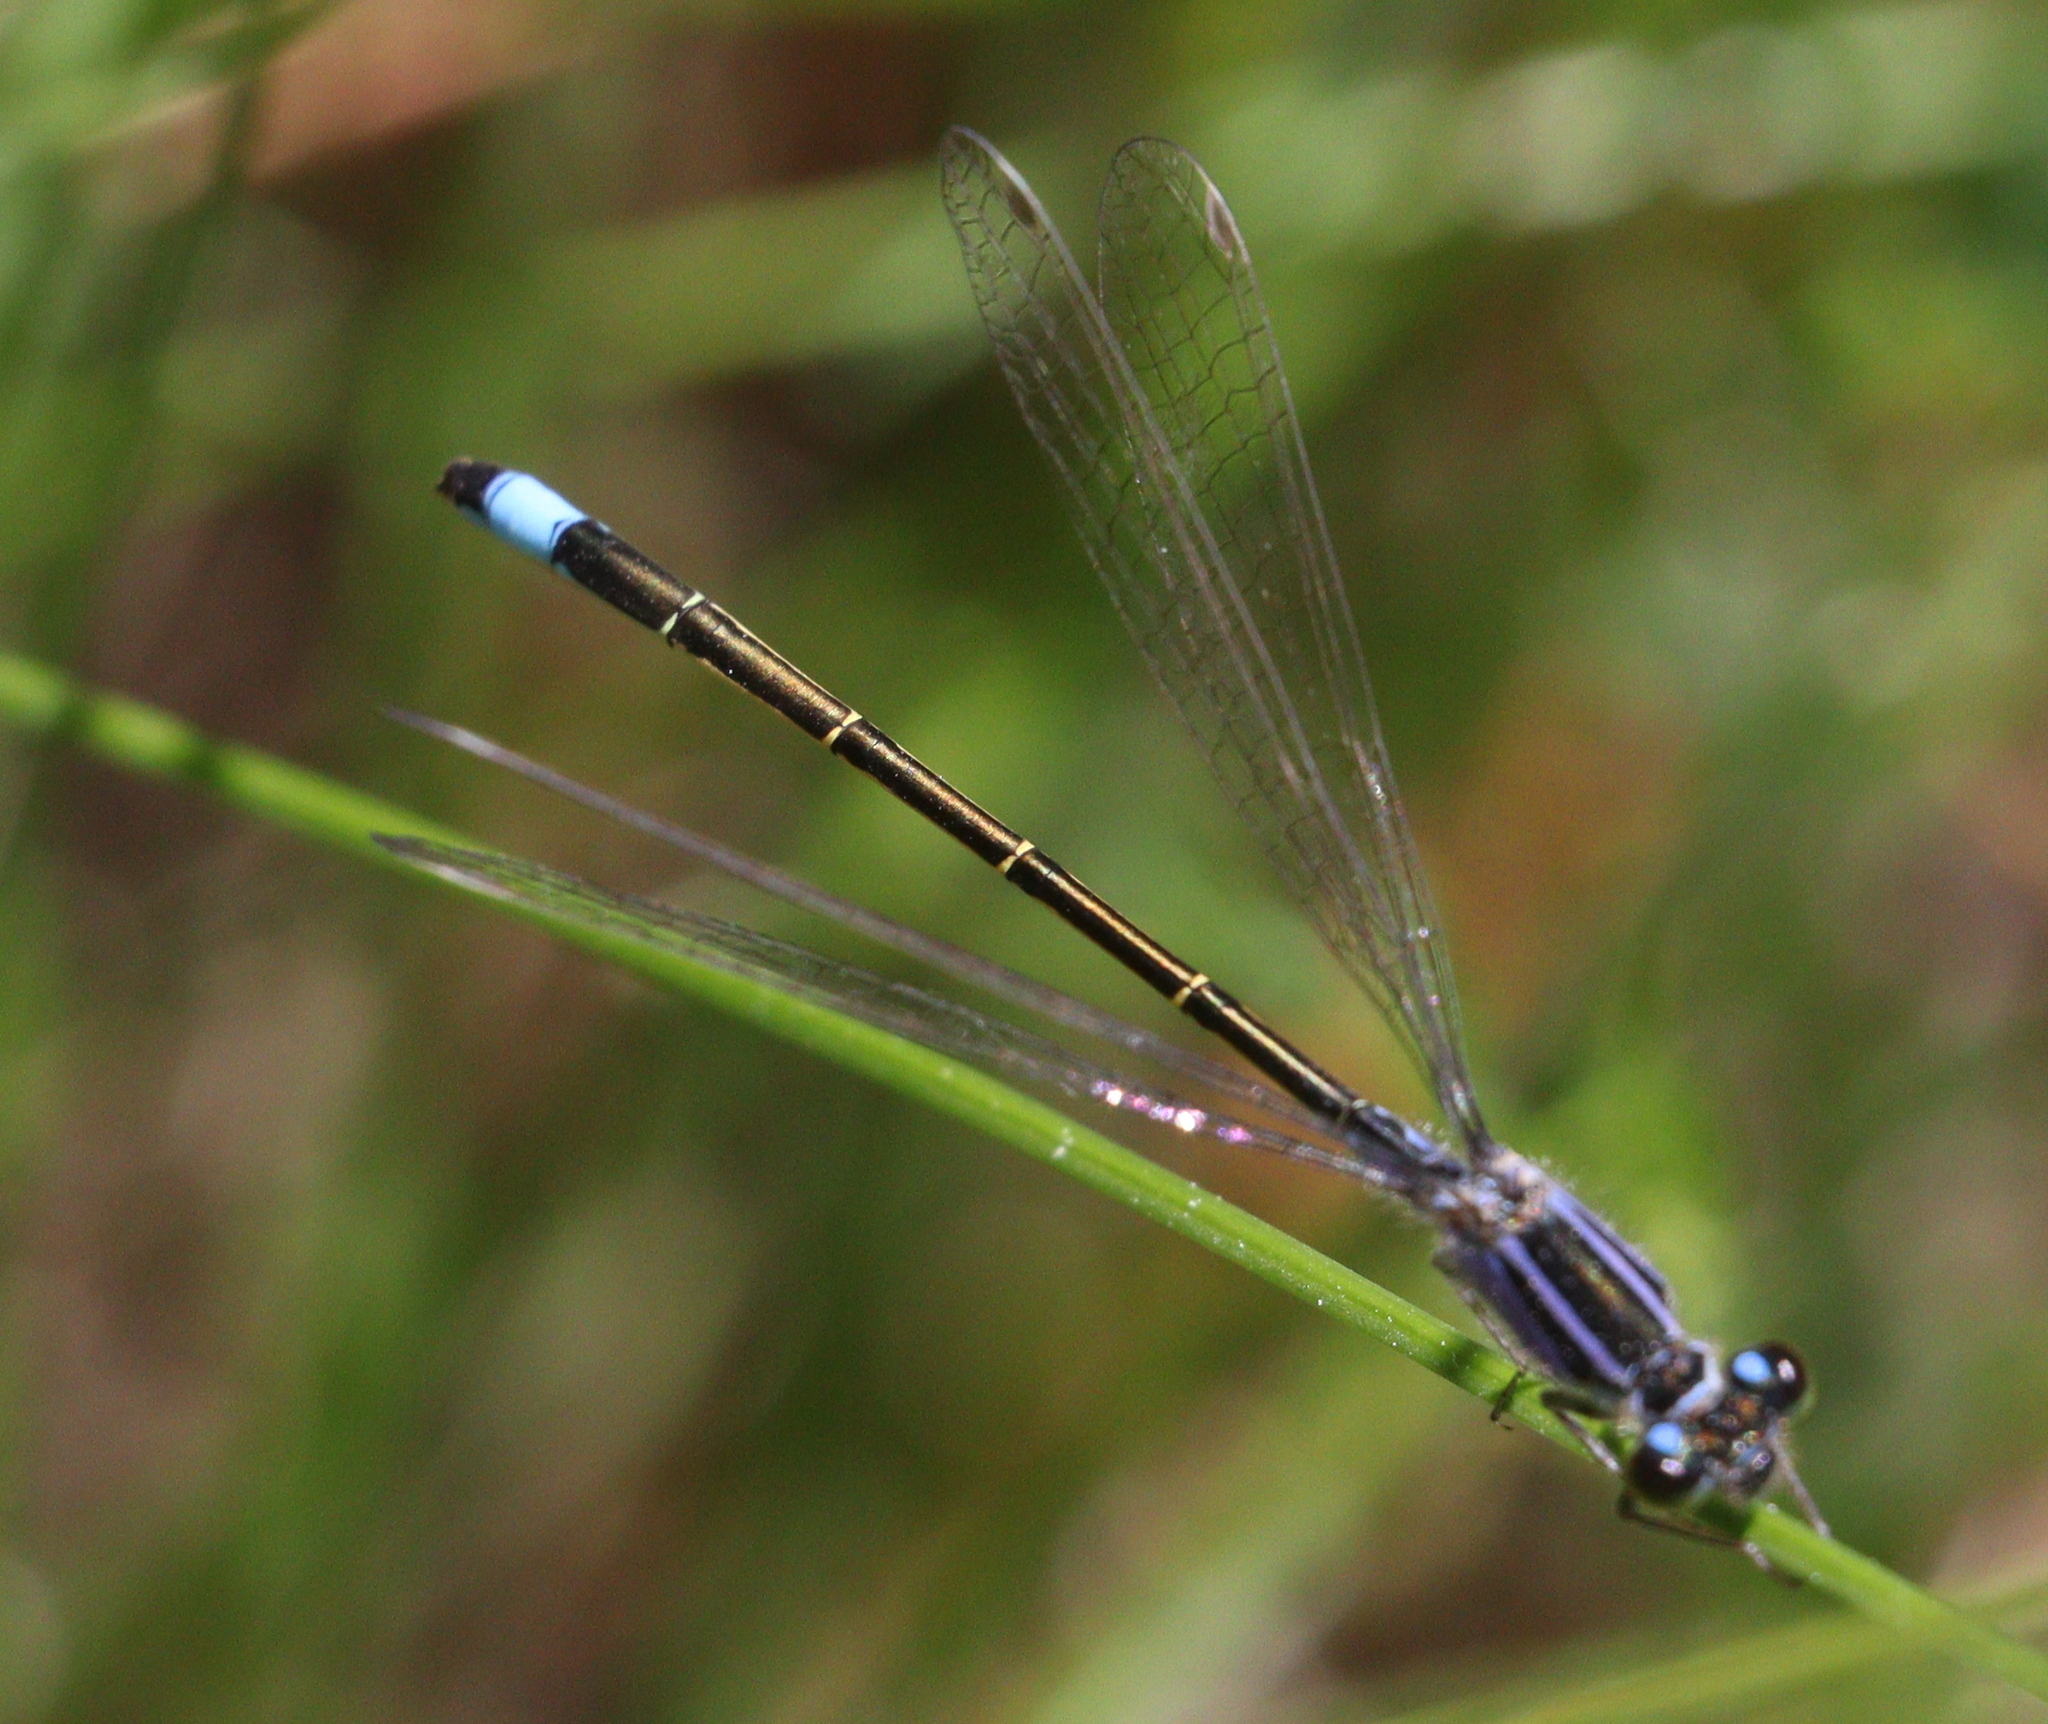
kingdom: Animalia
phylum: Arthropoda
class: Insecta
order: Odonata
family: Coenagrionidae
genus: Ischnura
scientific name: Ischnura elegans
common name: Blue-tailed damselfly
